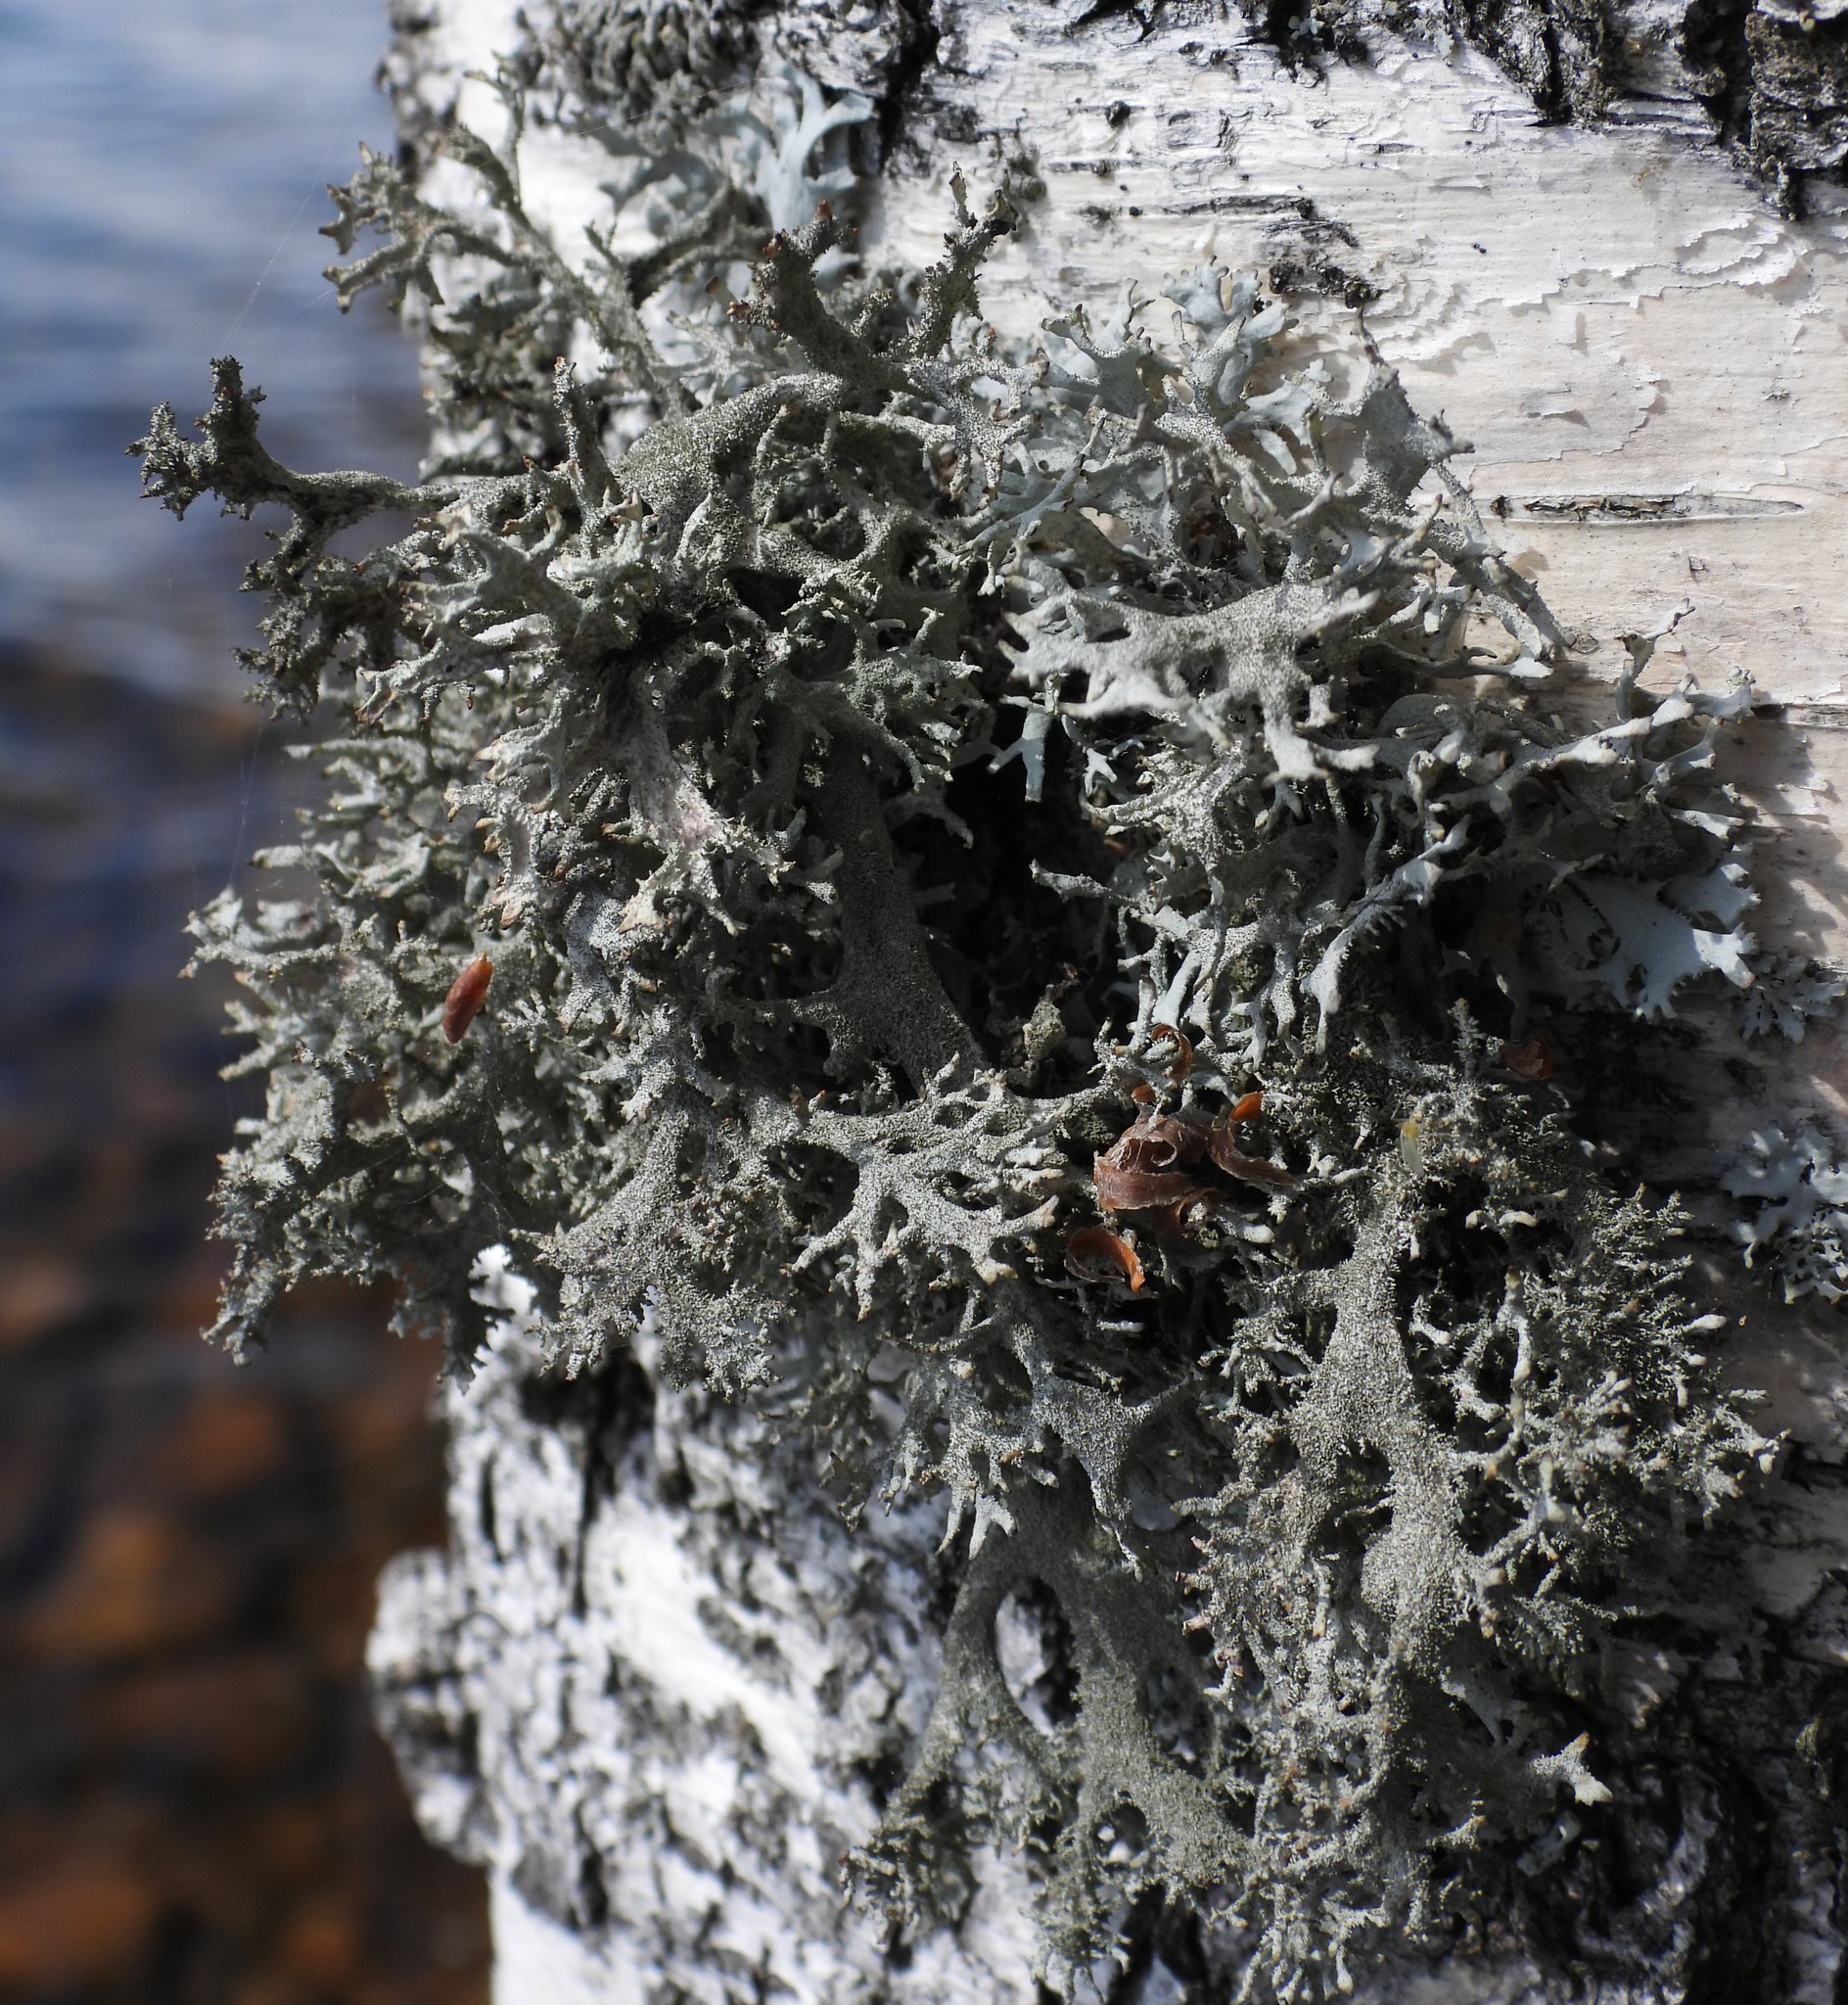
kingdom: Fungi
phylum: Ascomycota
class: Lecanoromycetes
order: Lecanorales
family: Parmeliaceae
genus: Pseudevernia
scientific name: Pseudevernia furfuracea
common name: Tree moss
